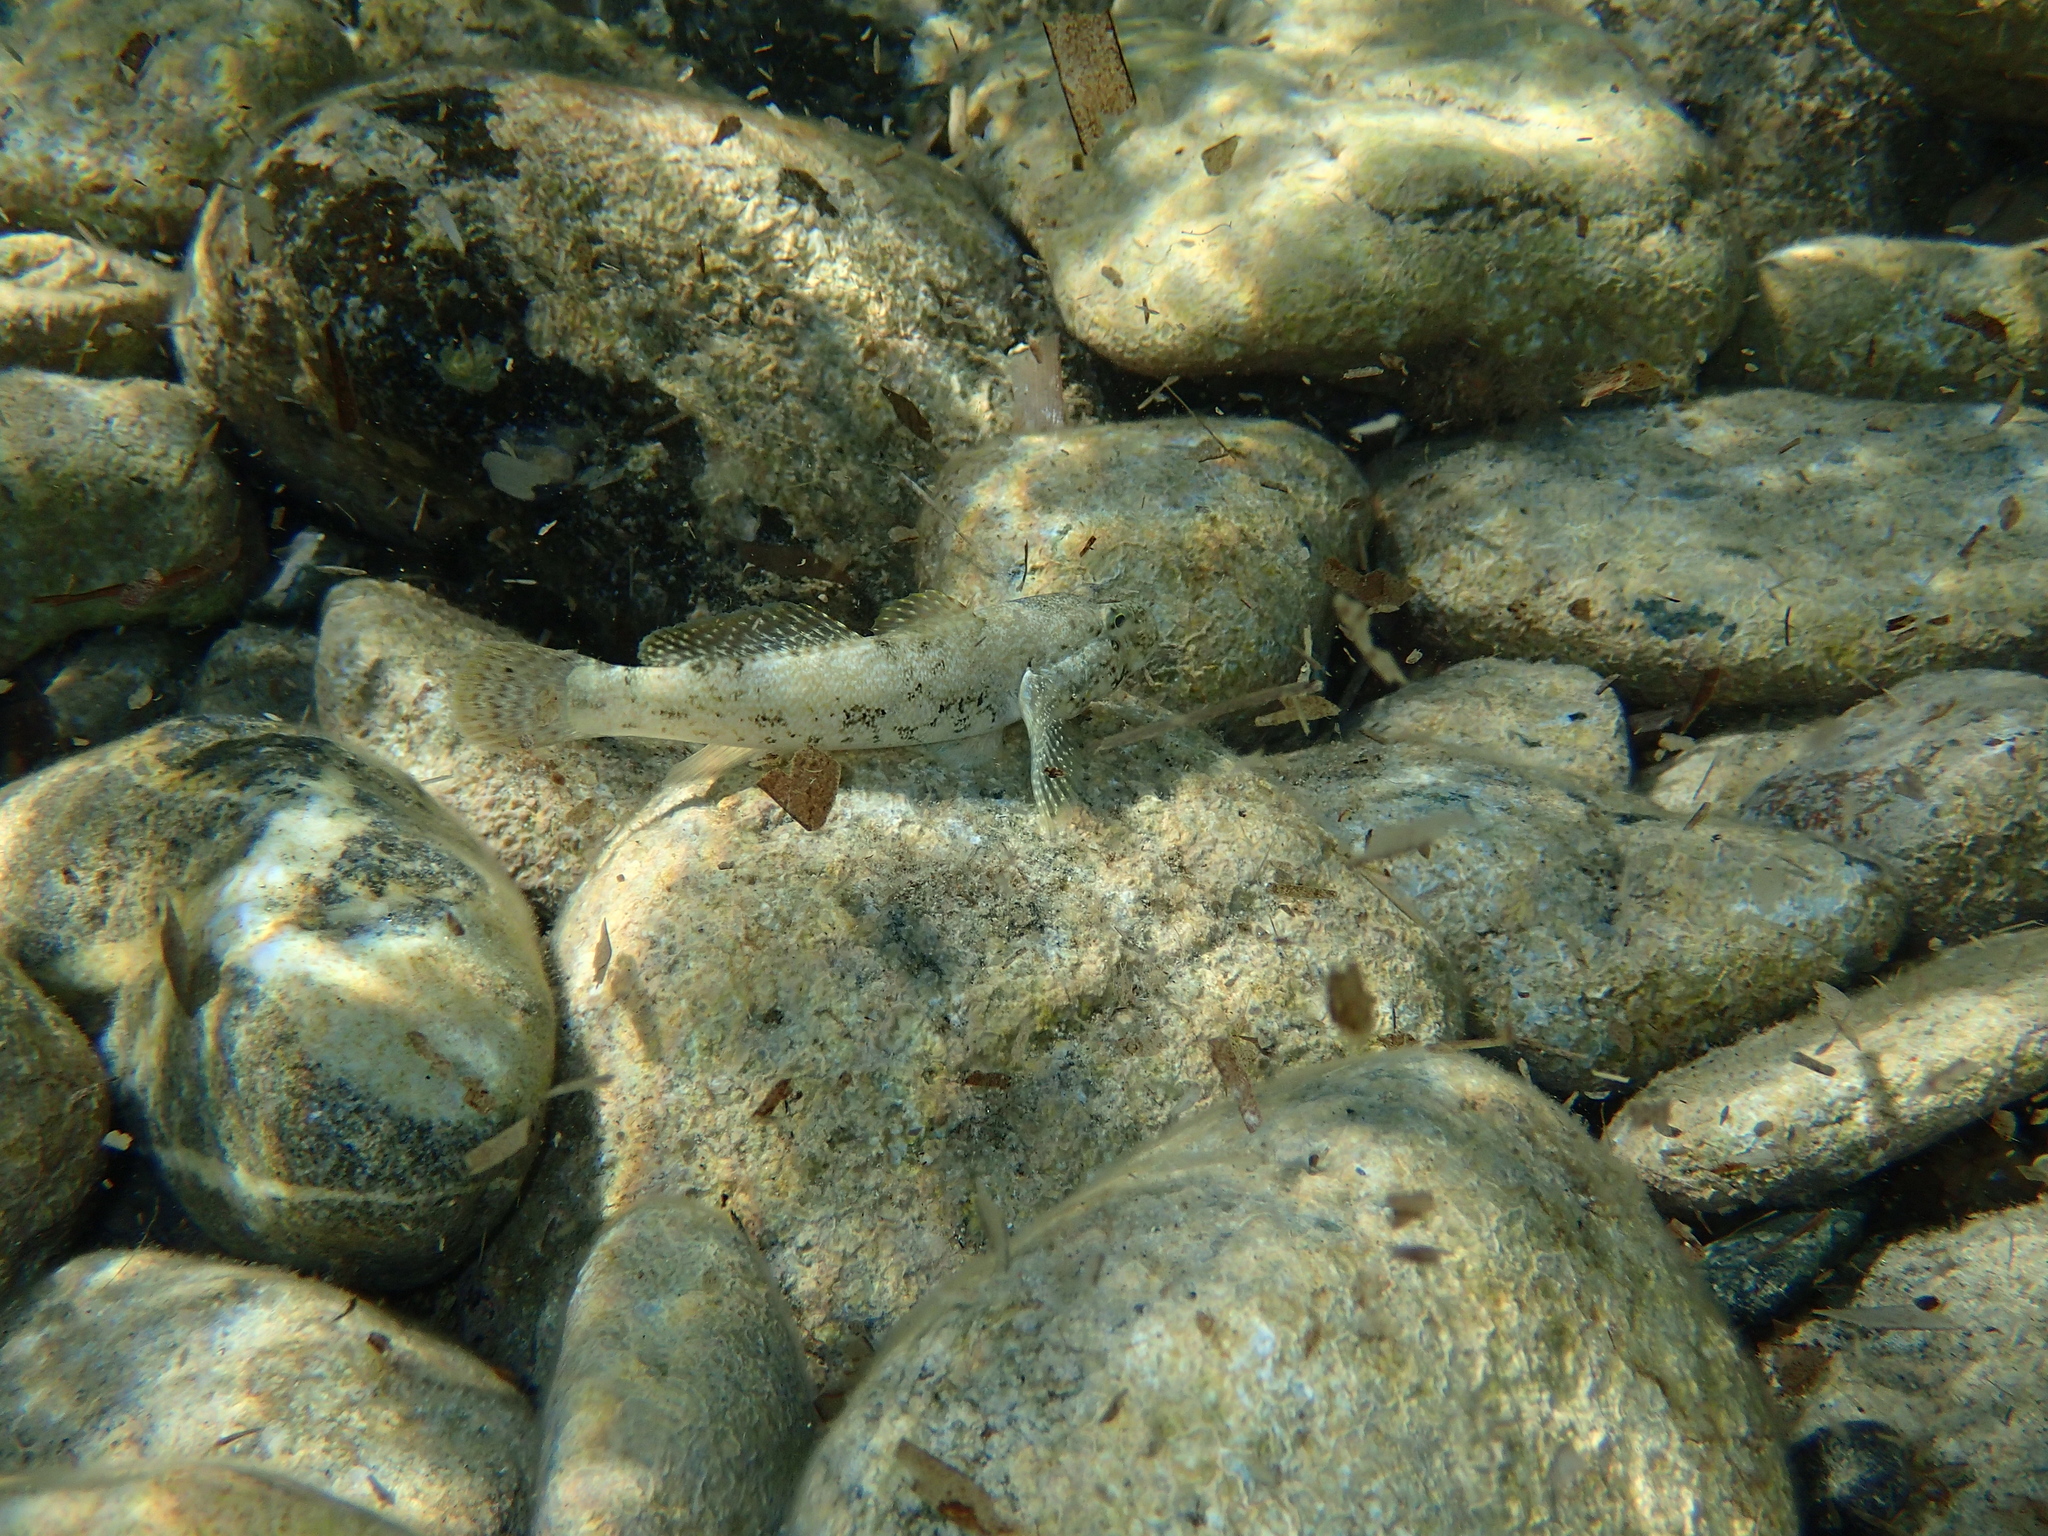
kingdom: Animalia
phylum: Chordata
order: Perciformes
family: Gobiidae
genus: Gobius
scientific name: Gobius cobitis
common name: Giant goby
